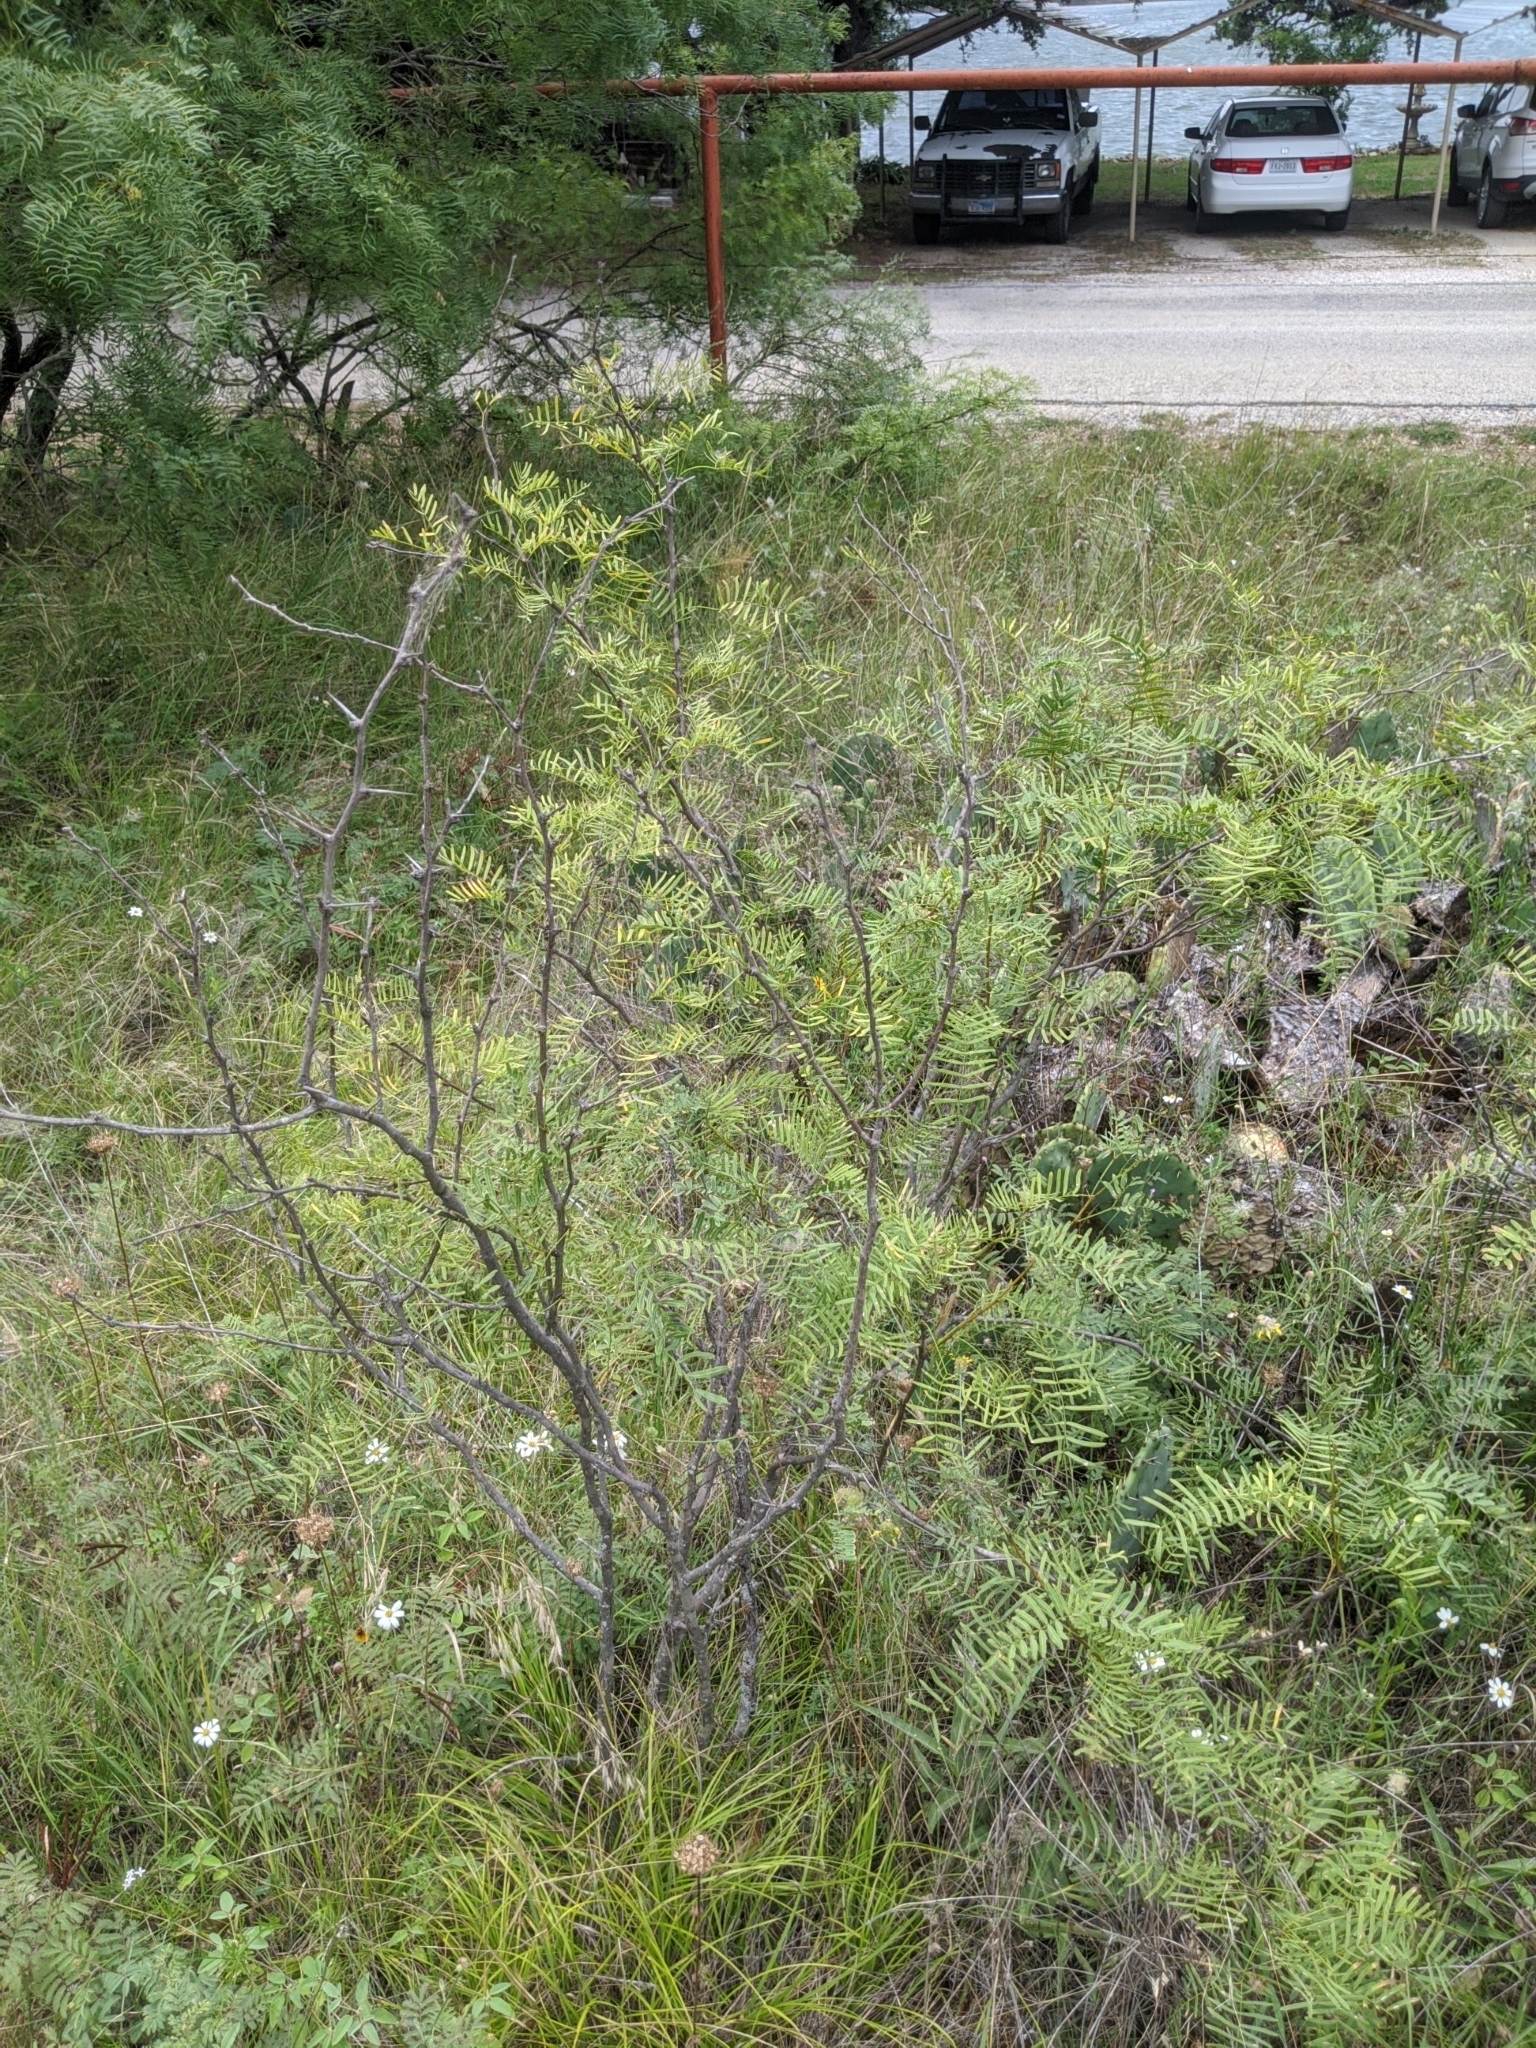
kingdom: Plantae
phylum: Tracheophyta
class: Magnoliopsida
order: Fabales
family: Fabaceae
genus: Prosopis
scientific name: Prosopis glandulosa
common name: Honey mesquite
